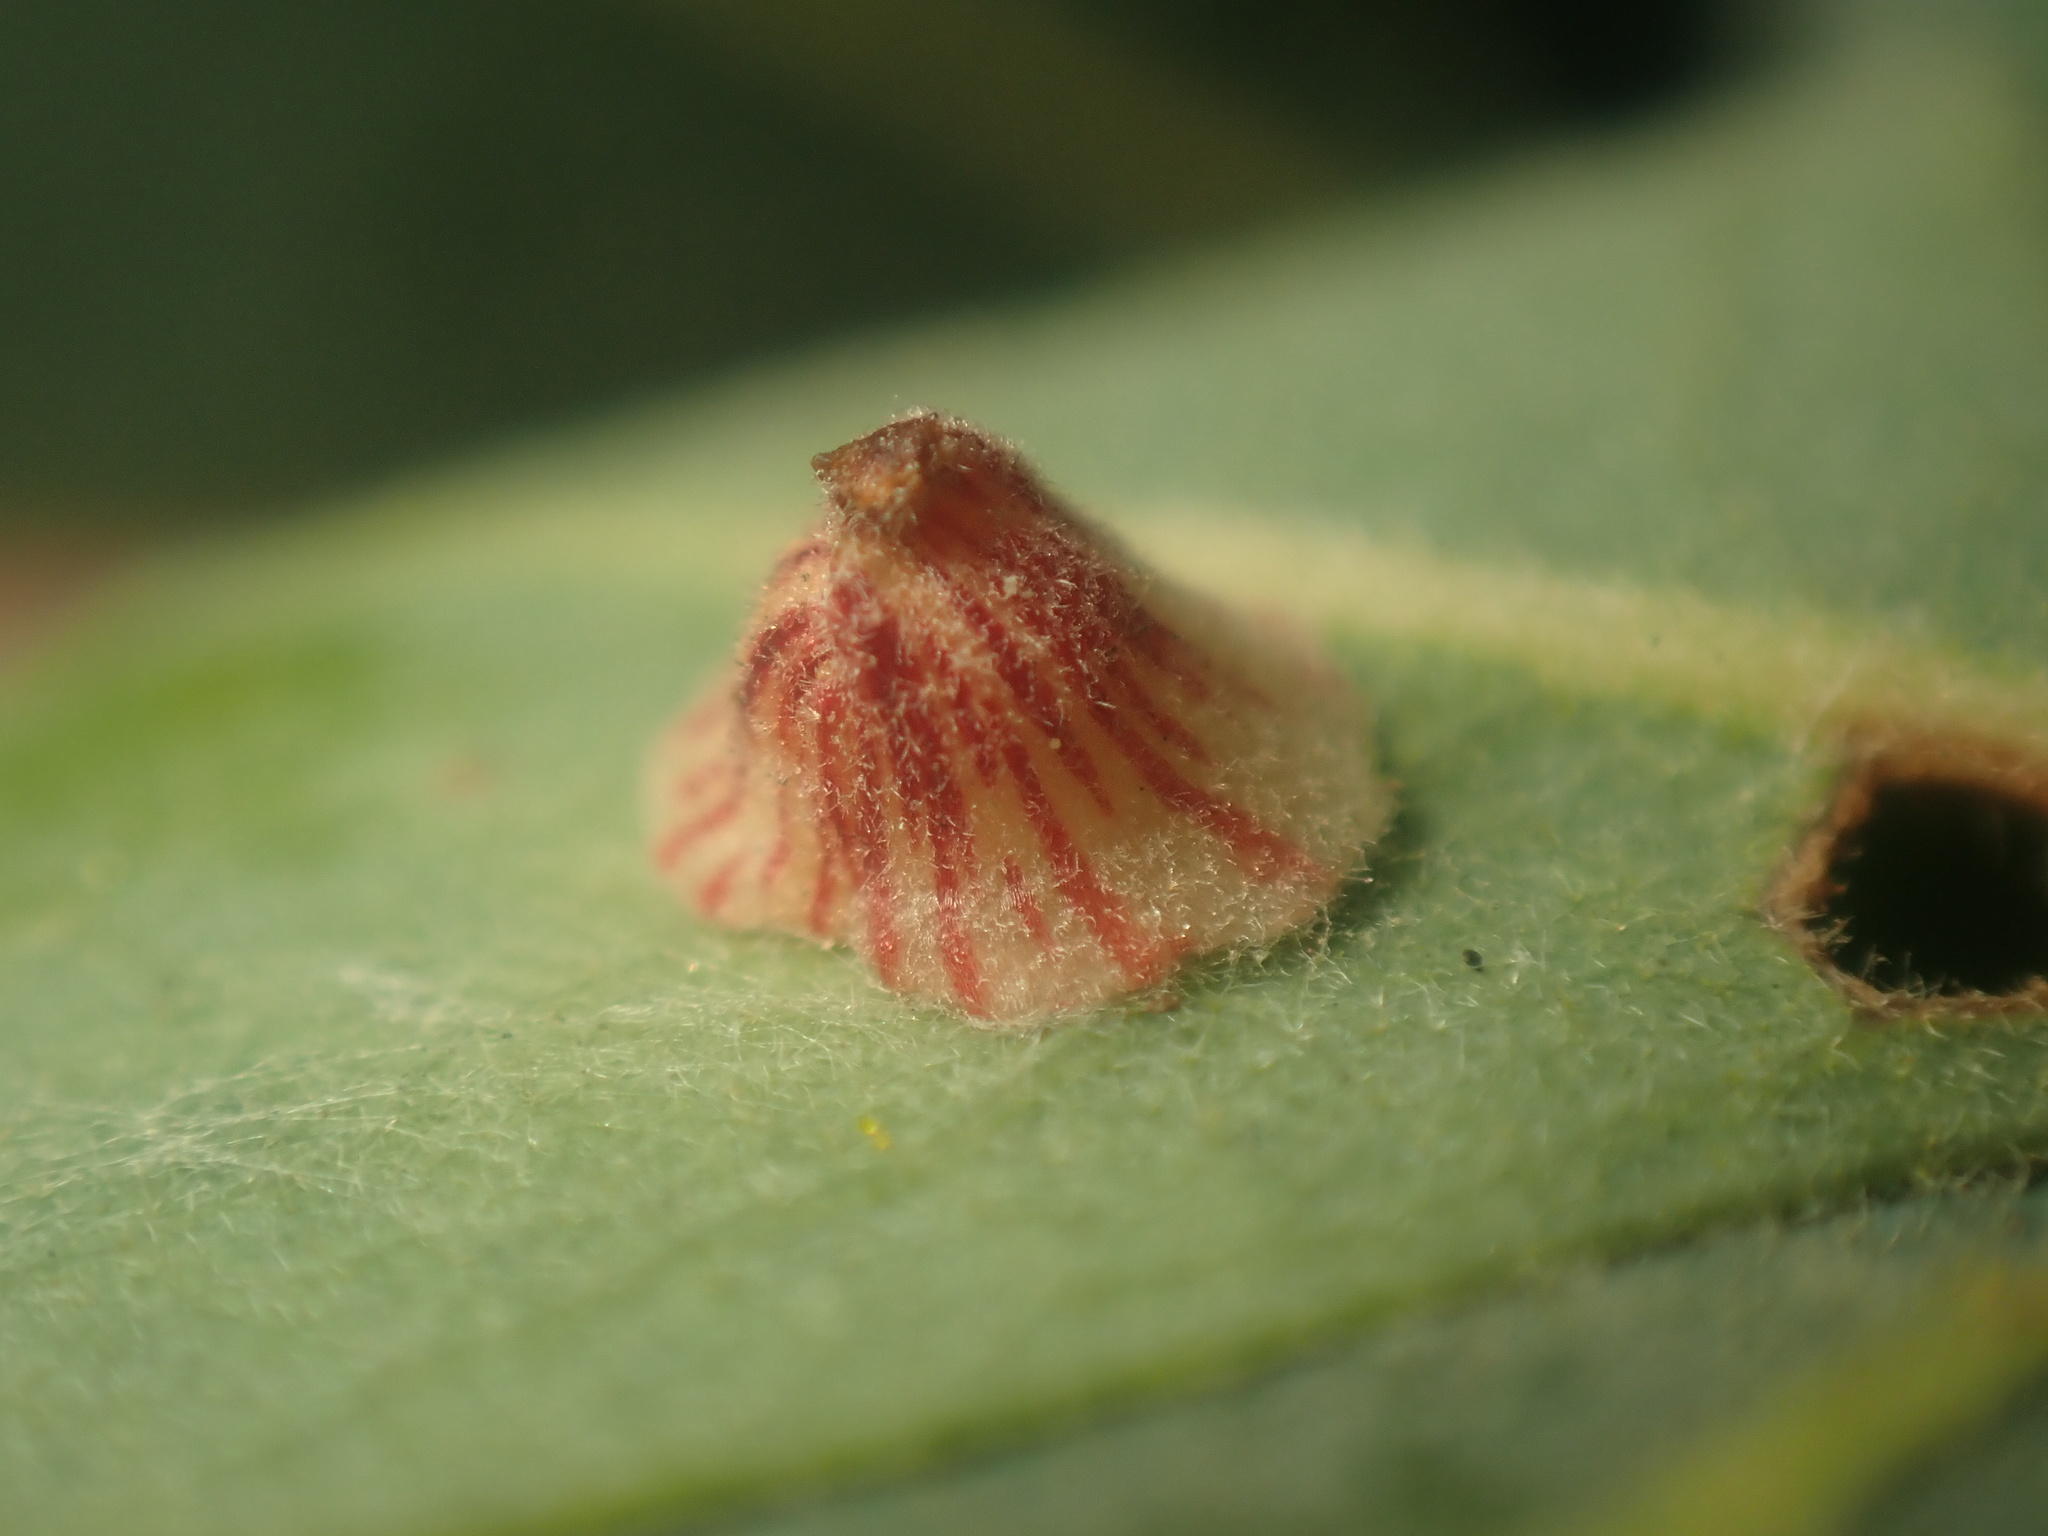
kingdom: Animalia
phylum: Arthropoda
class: Insecta
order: Hymenoptera
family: Cynipidae
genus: Andricus
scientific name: Andricus
